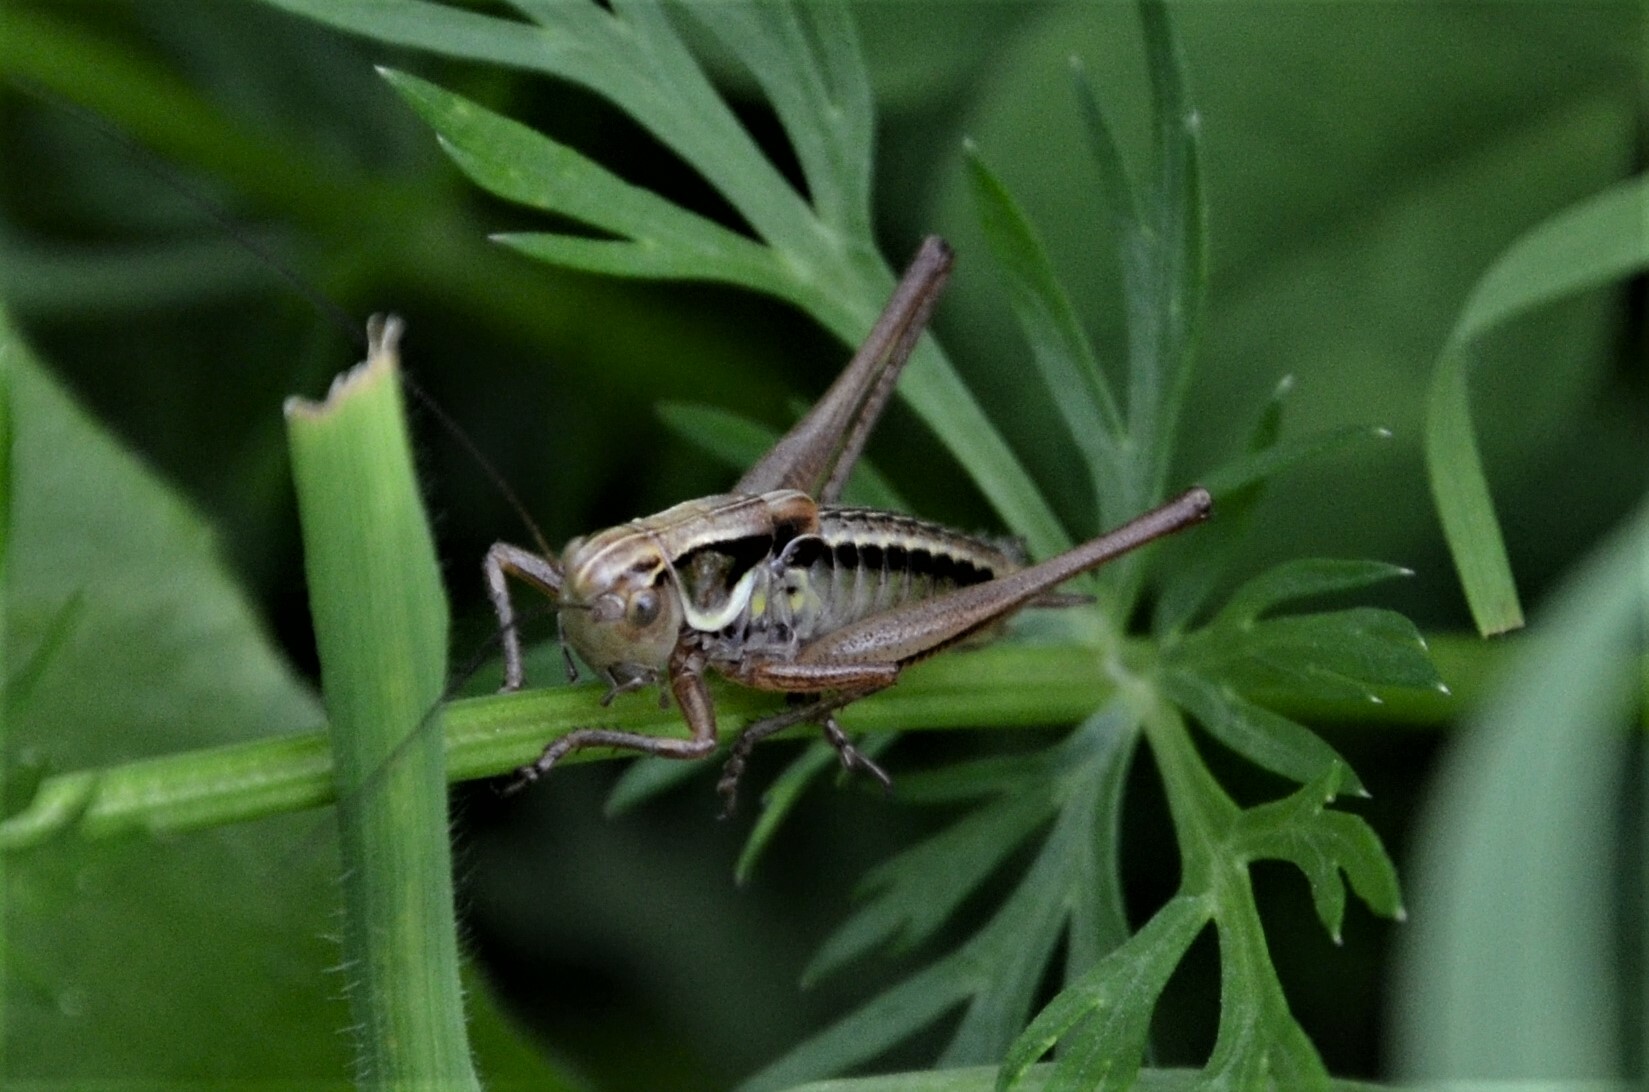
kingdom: Animalia
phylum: Arthropoda
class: Insecta
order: Orthoptera
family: Tettigoniidae
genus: Roeseliana
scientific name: Roeseliana roeselii
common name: Roesel's bush cricket
